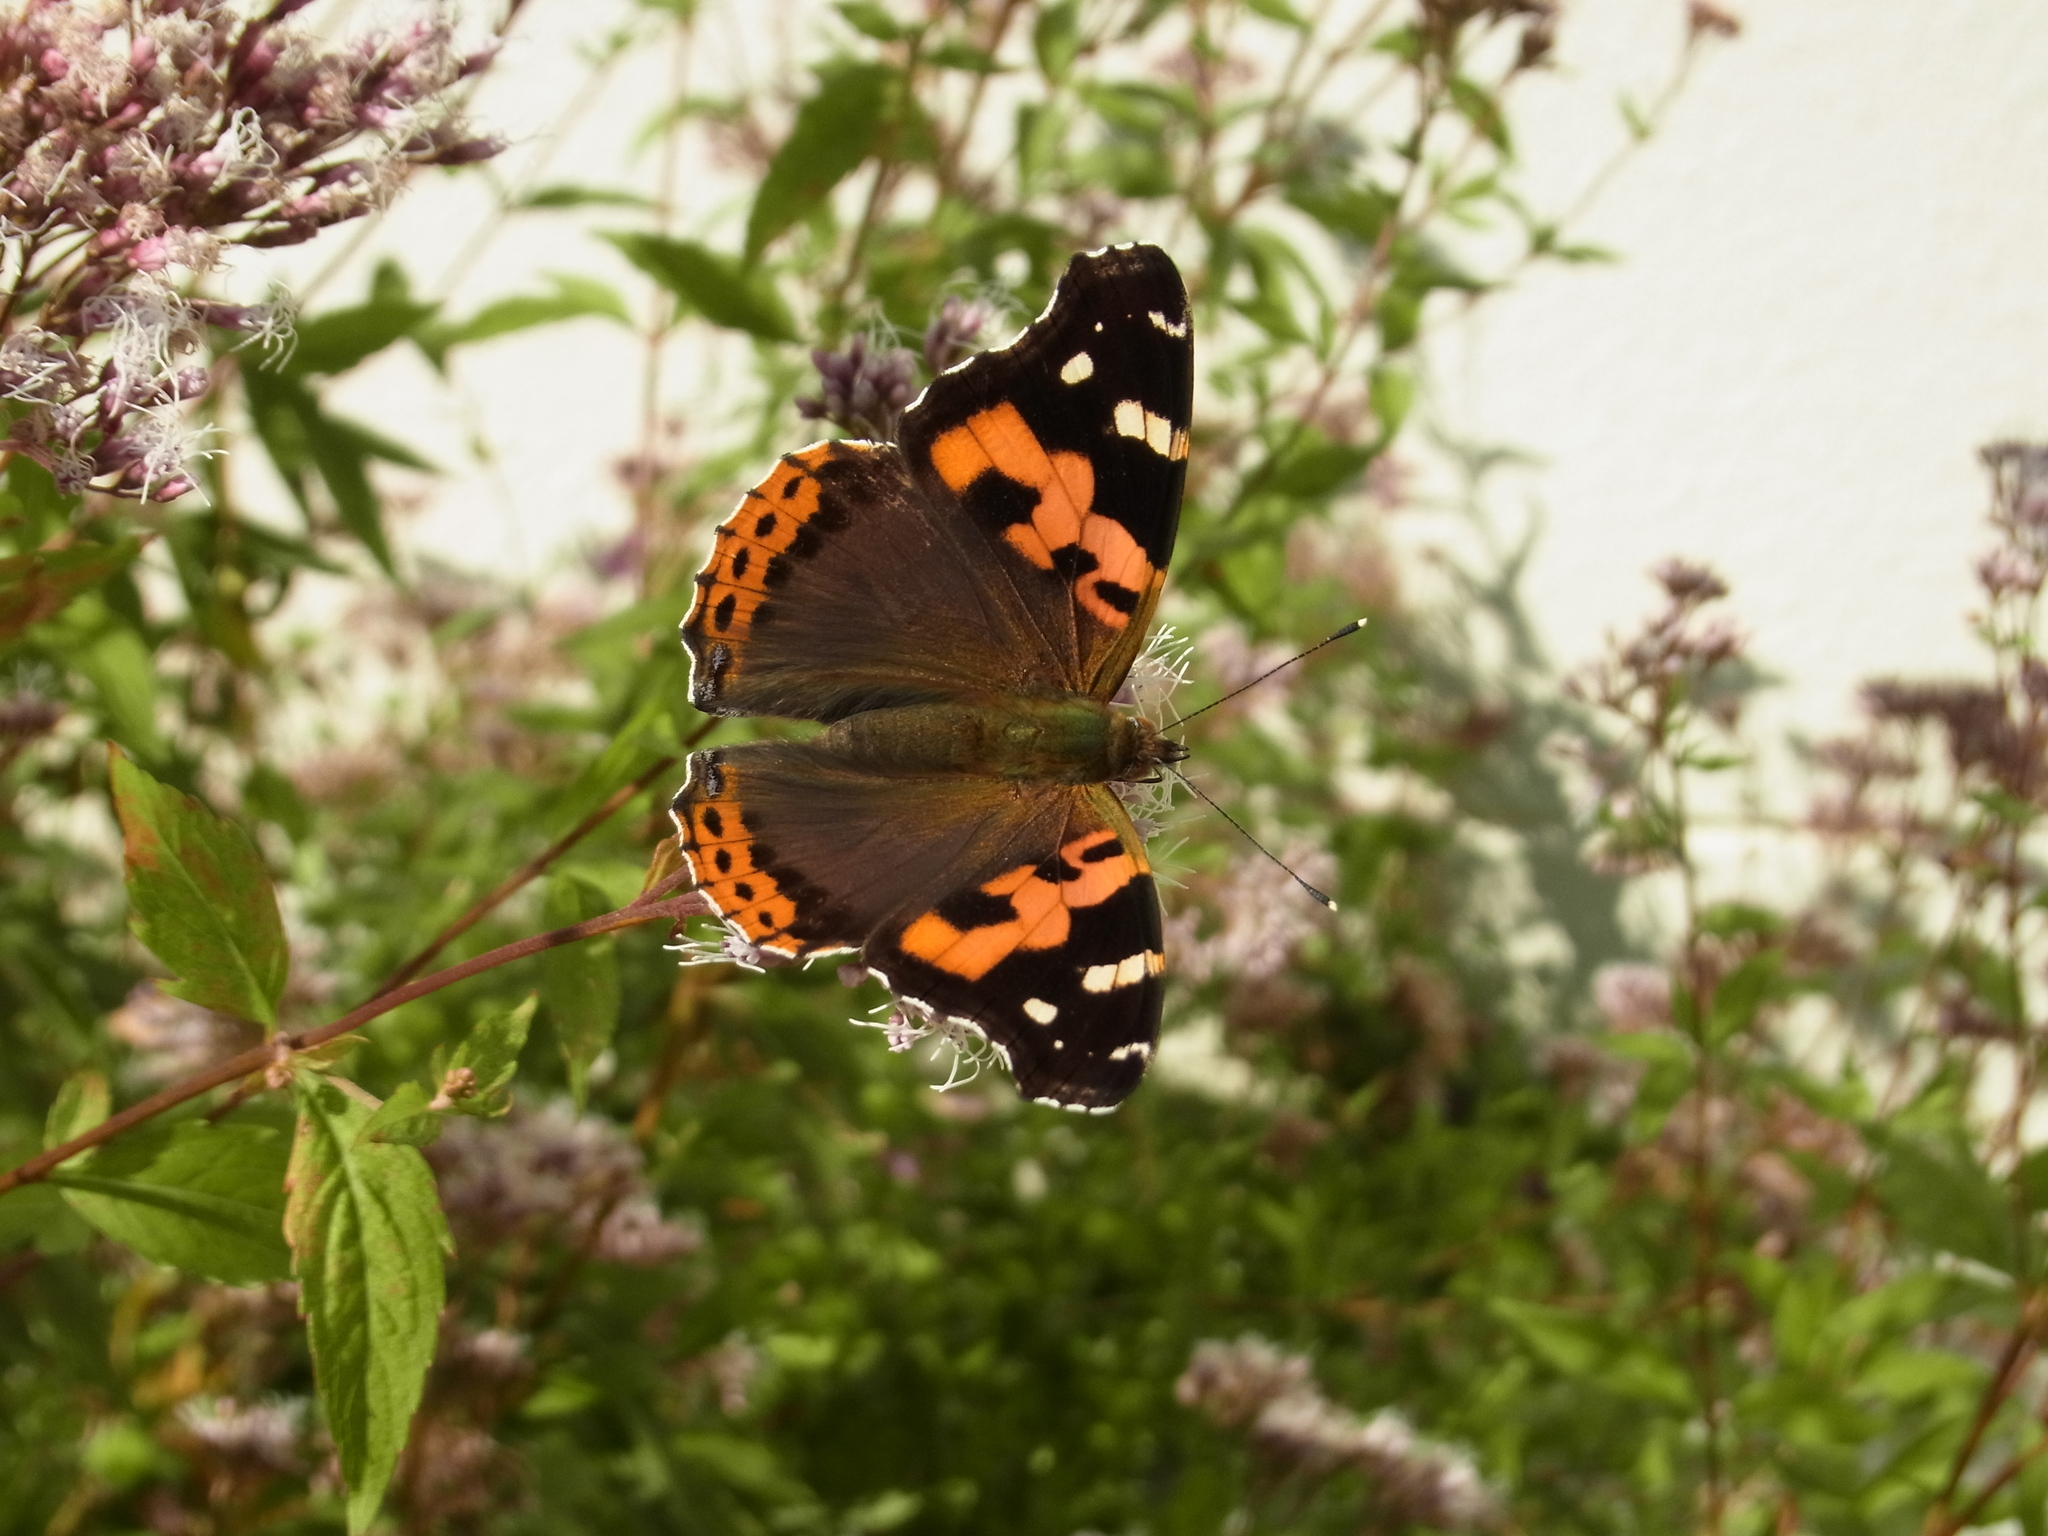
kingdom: Animalia
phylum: Arthropoda
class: Insecta
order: Lepidoptera
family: Nymphalidae
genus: Vanessa
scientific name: Vanessa indica
